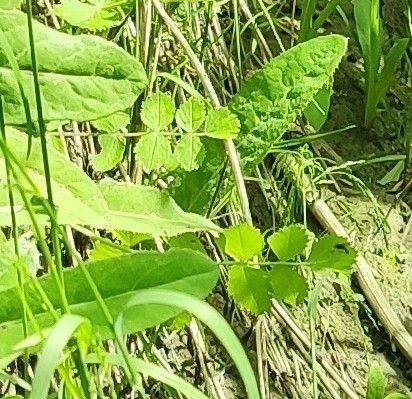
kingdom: Plantae
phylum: Tracheophyta
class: Magnoliopsida
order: Apiales
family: Apiaceae
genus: Pimpinella
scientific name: Pimpinella saxifraga
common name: Burnet-saxifrage
